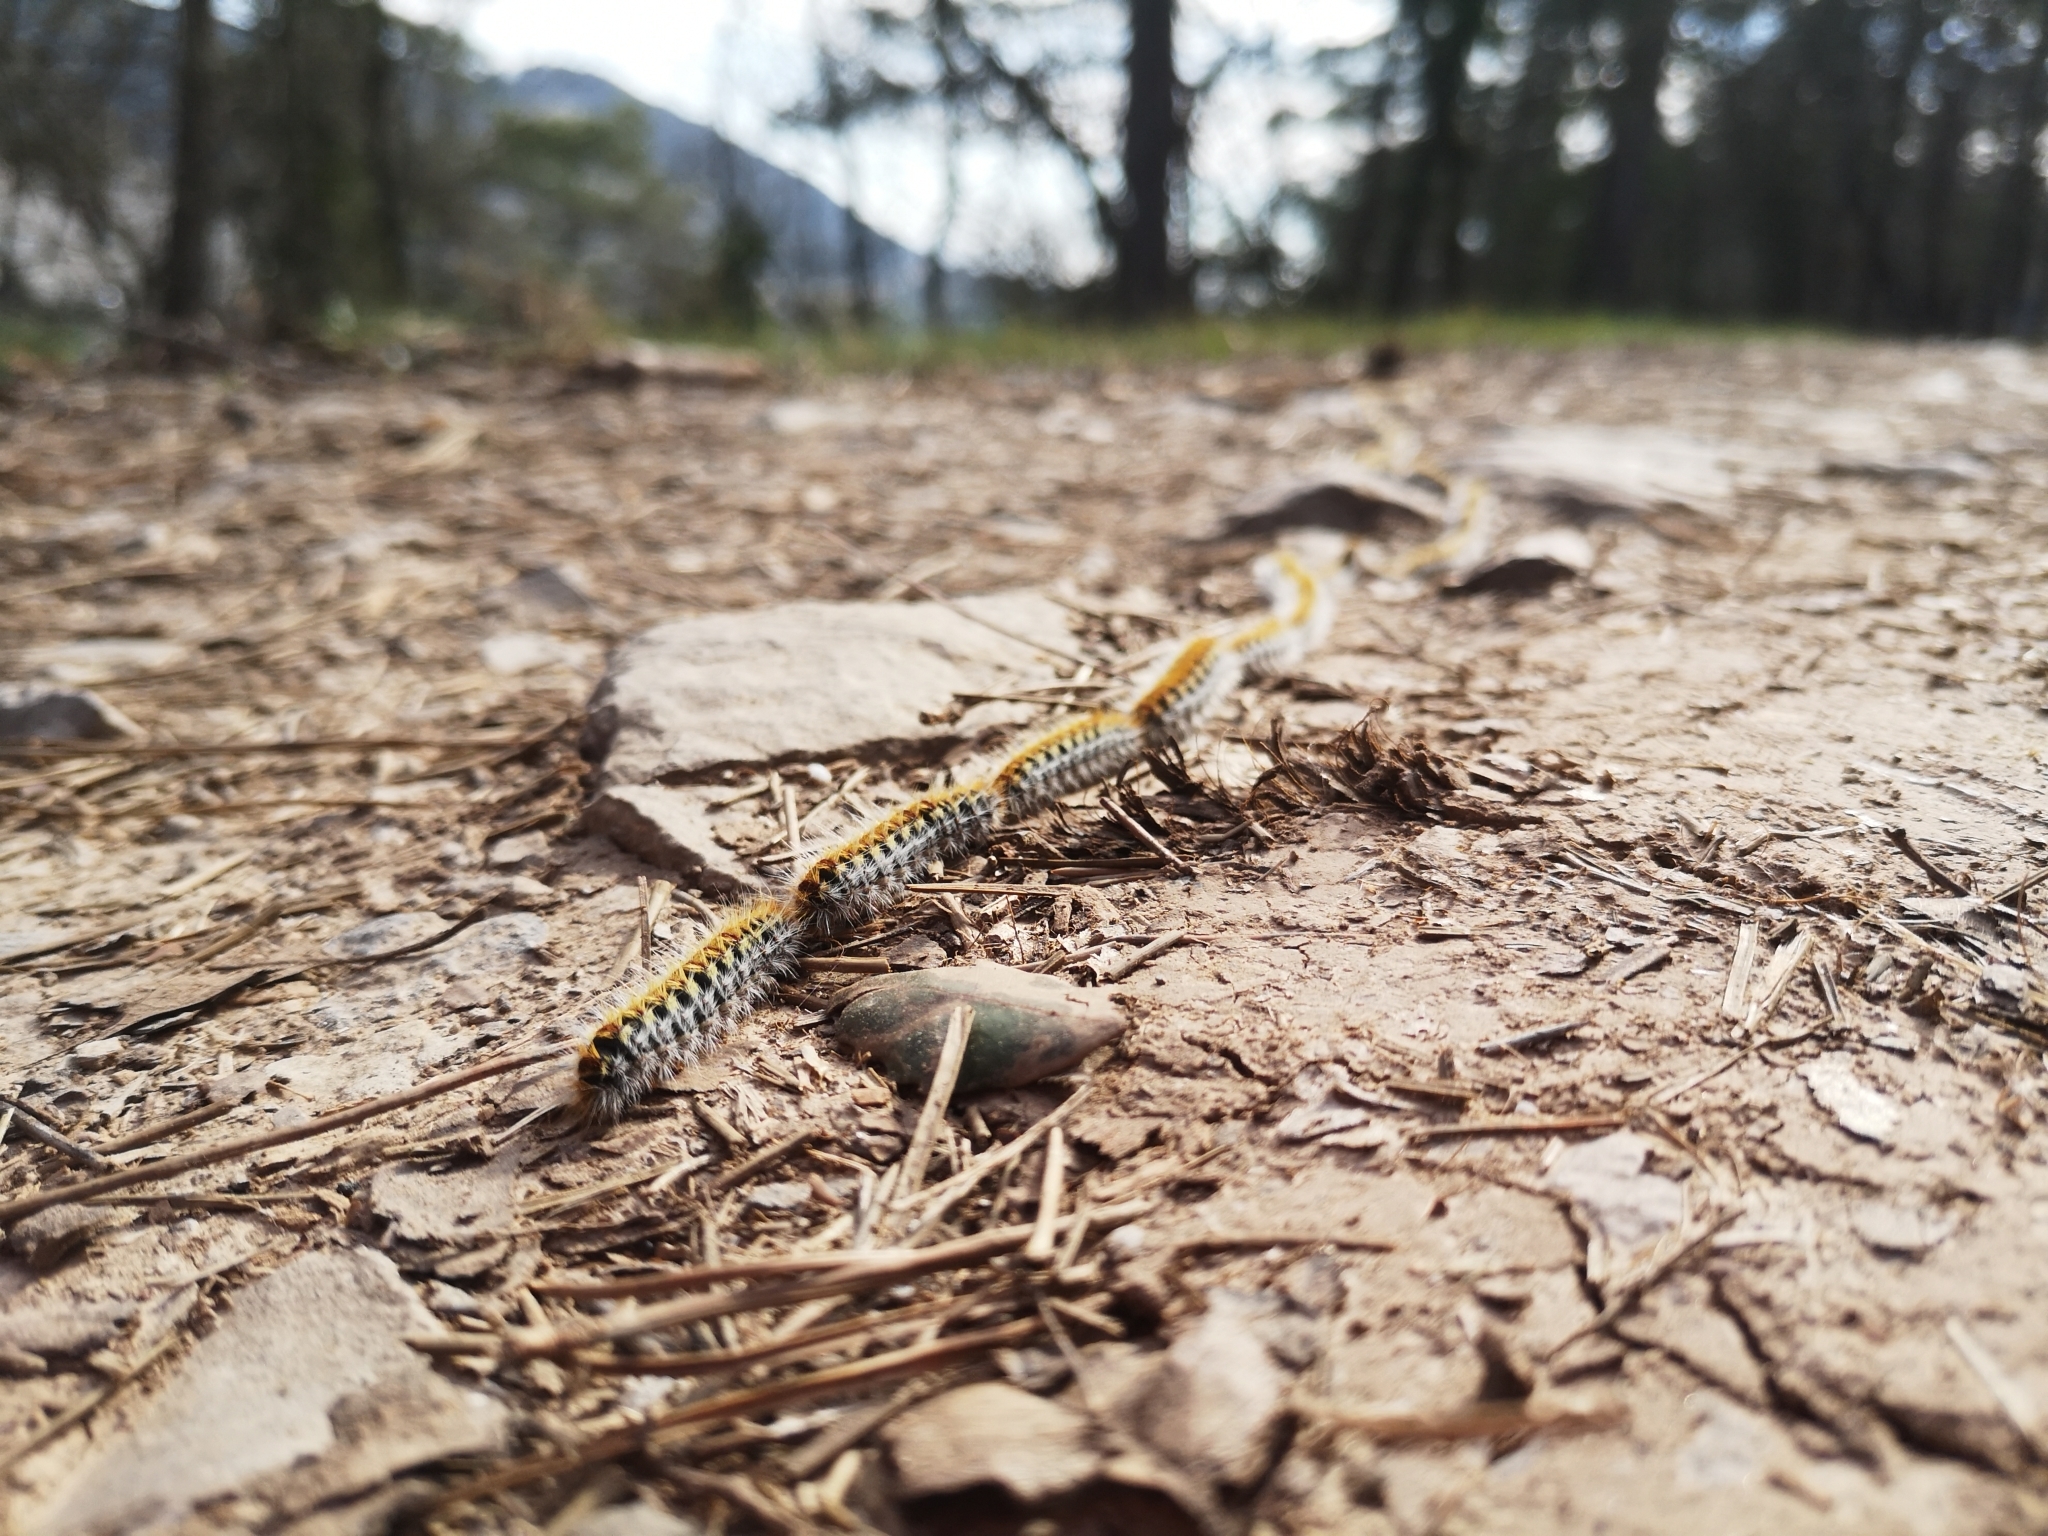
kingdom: Animalia
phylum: Arthropoda
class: Insecta
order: Lepidoptera
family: Notodontidae
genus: Thaumetopoea
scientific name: Thaumetopoea pityocampa
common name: Pine processionary
